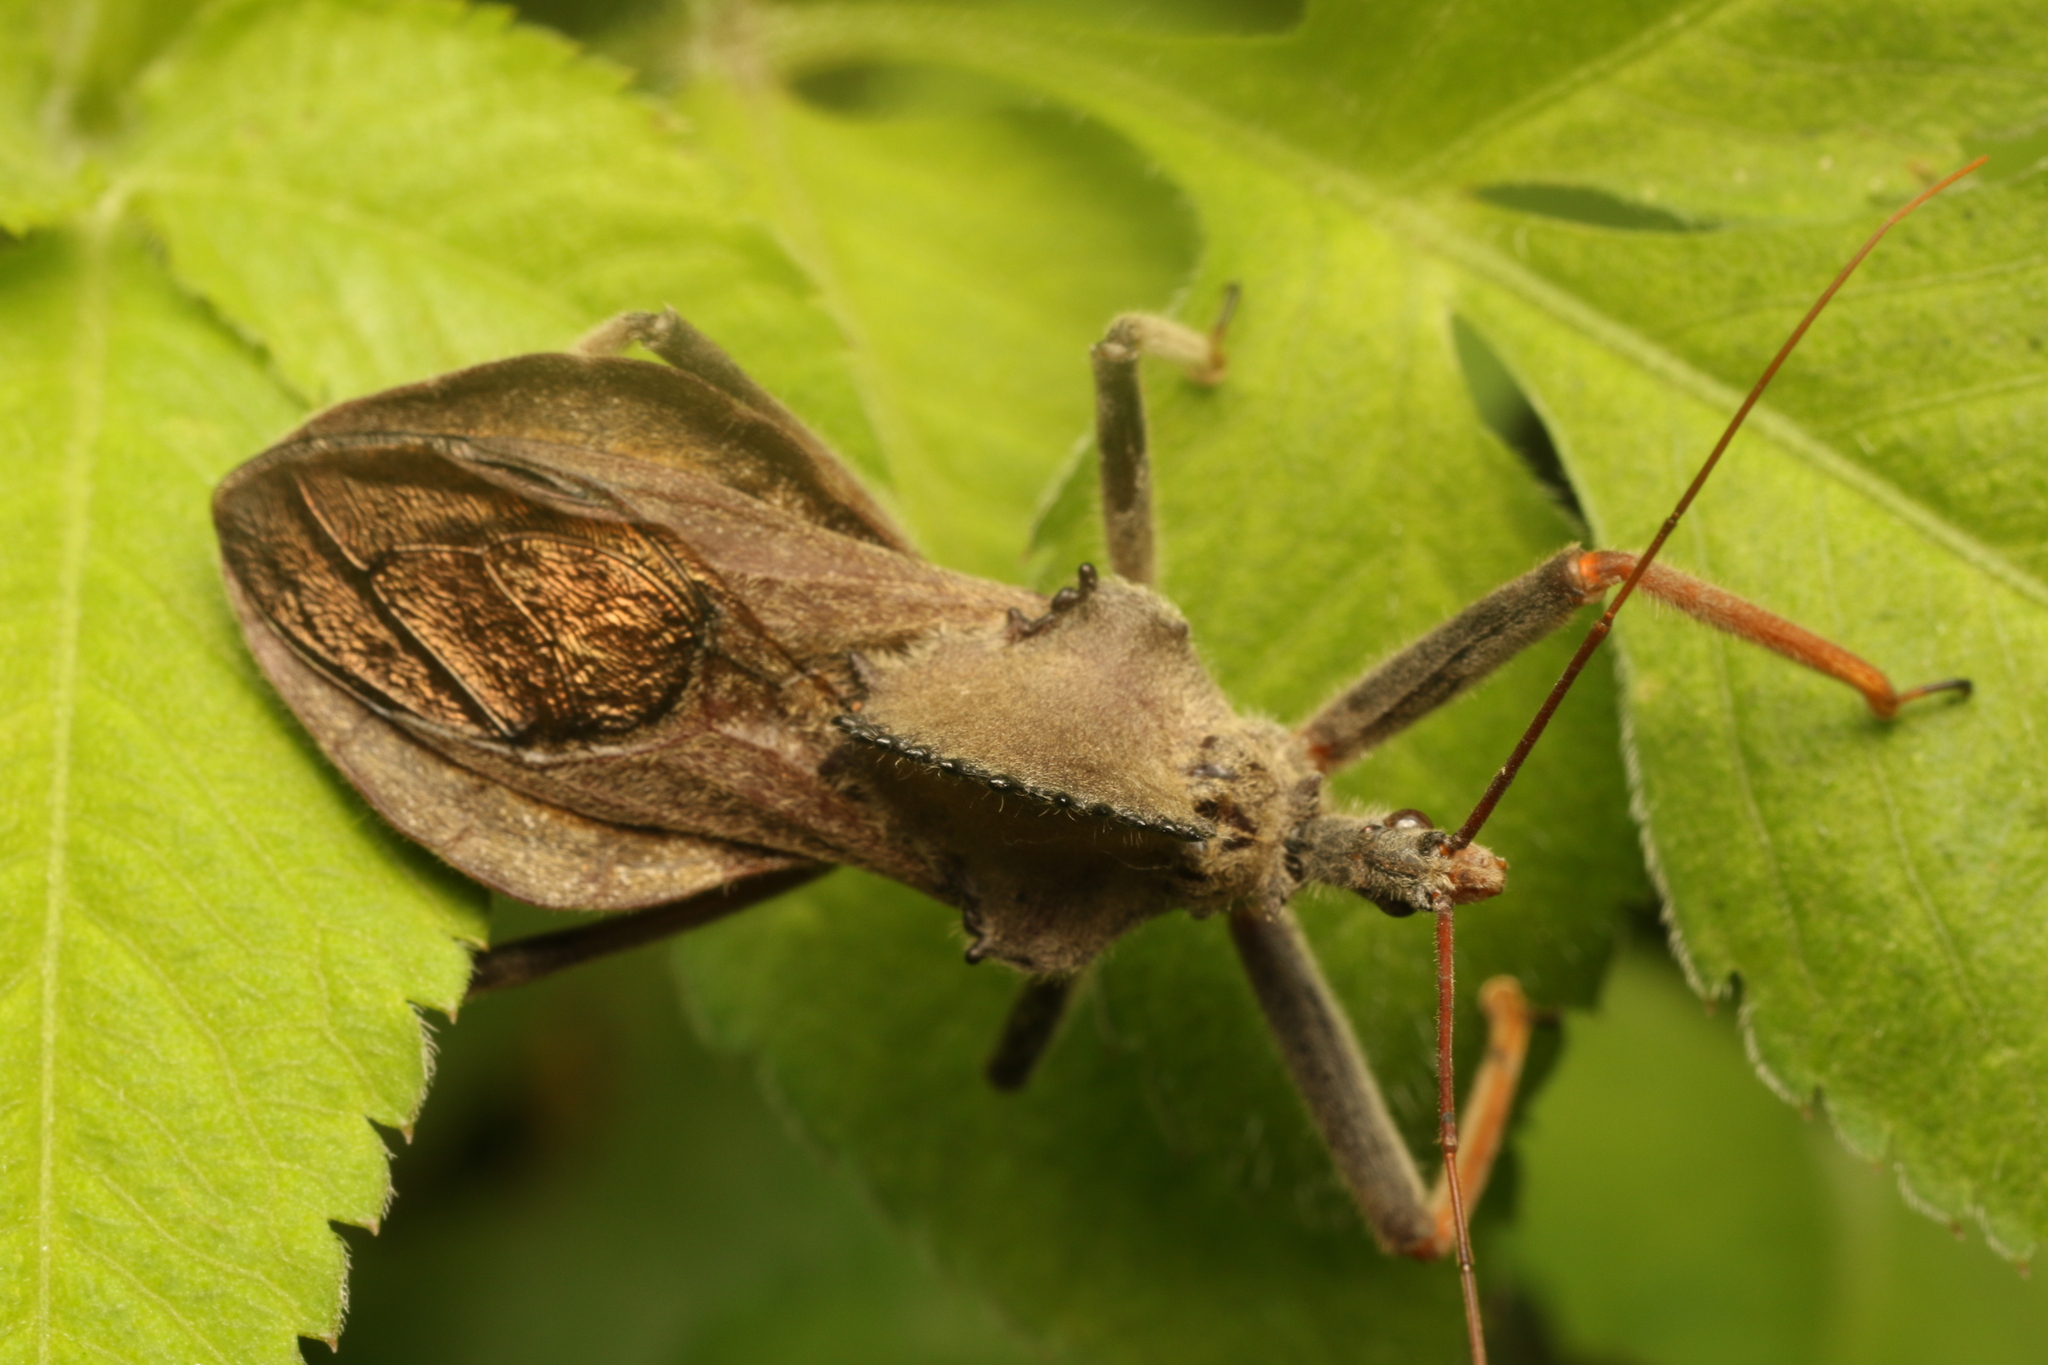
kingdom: Animalia
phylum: Arthropoda
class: Insecta
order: Hemiptera
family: Reduviidae
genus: Arilus
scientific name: Arilus carinatus
